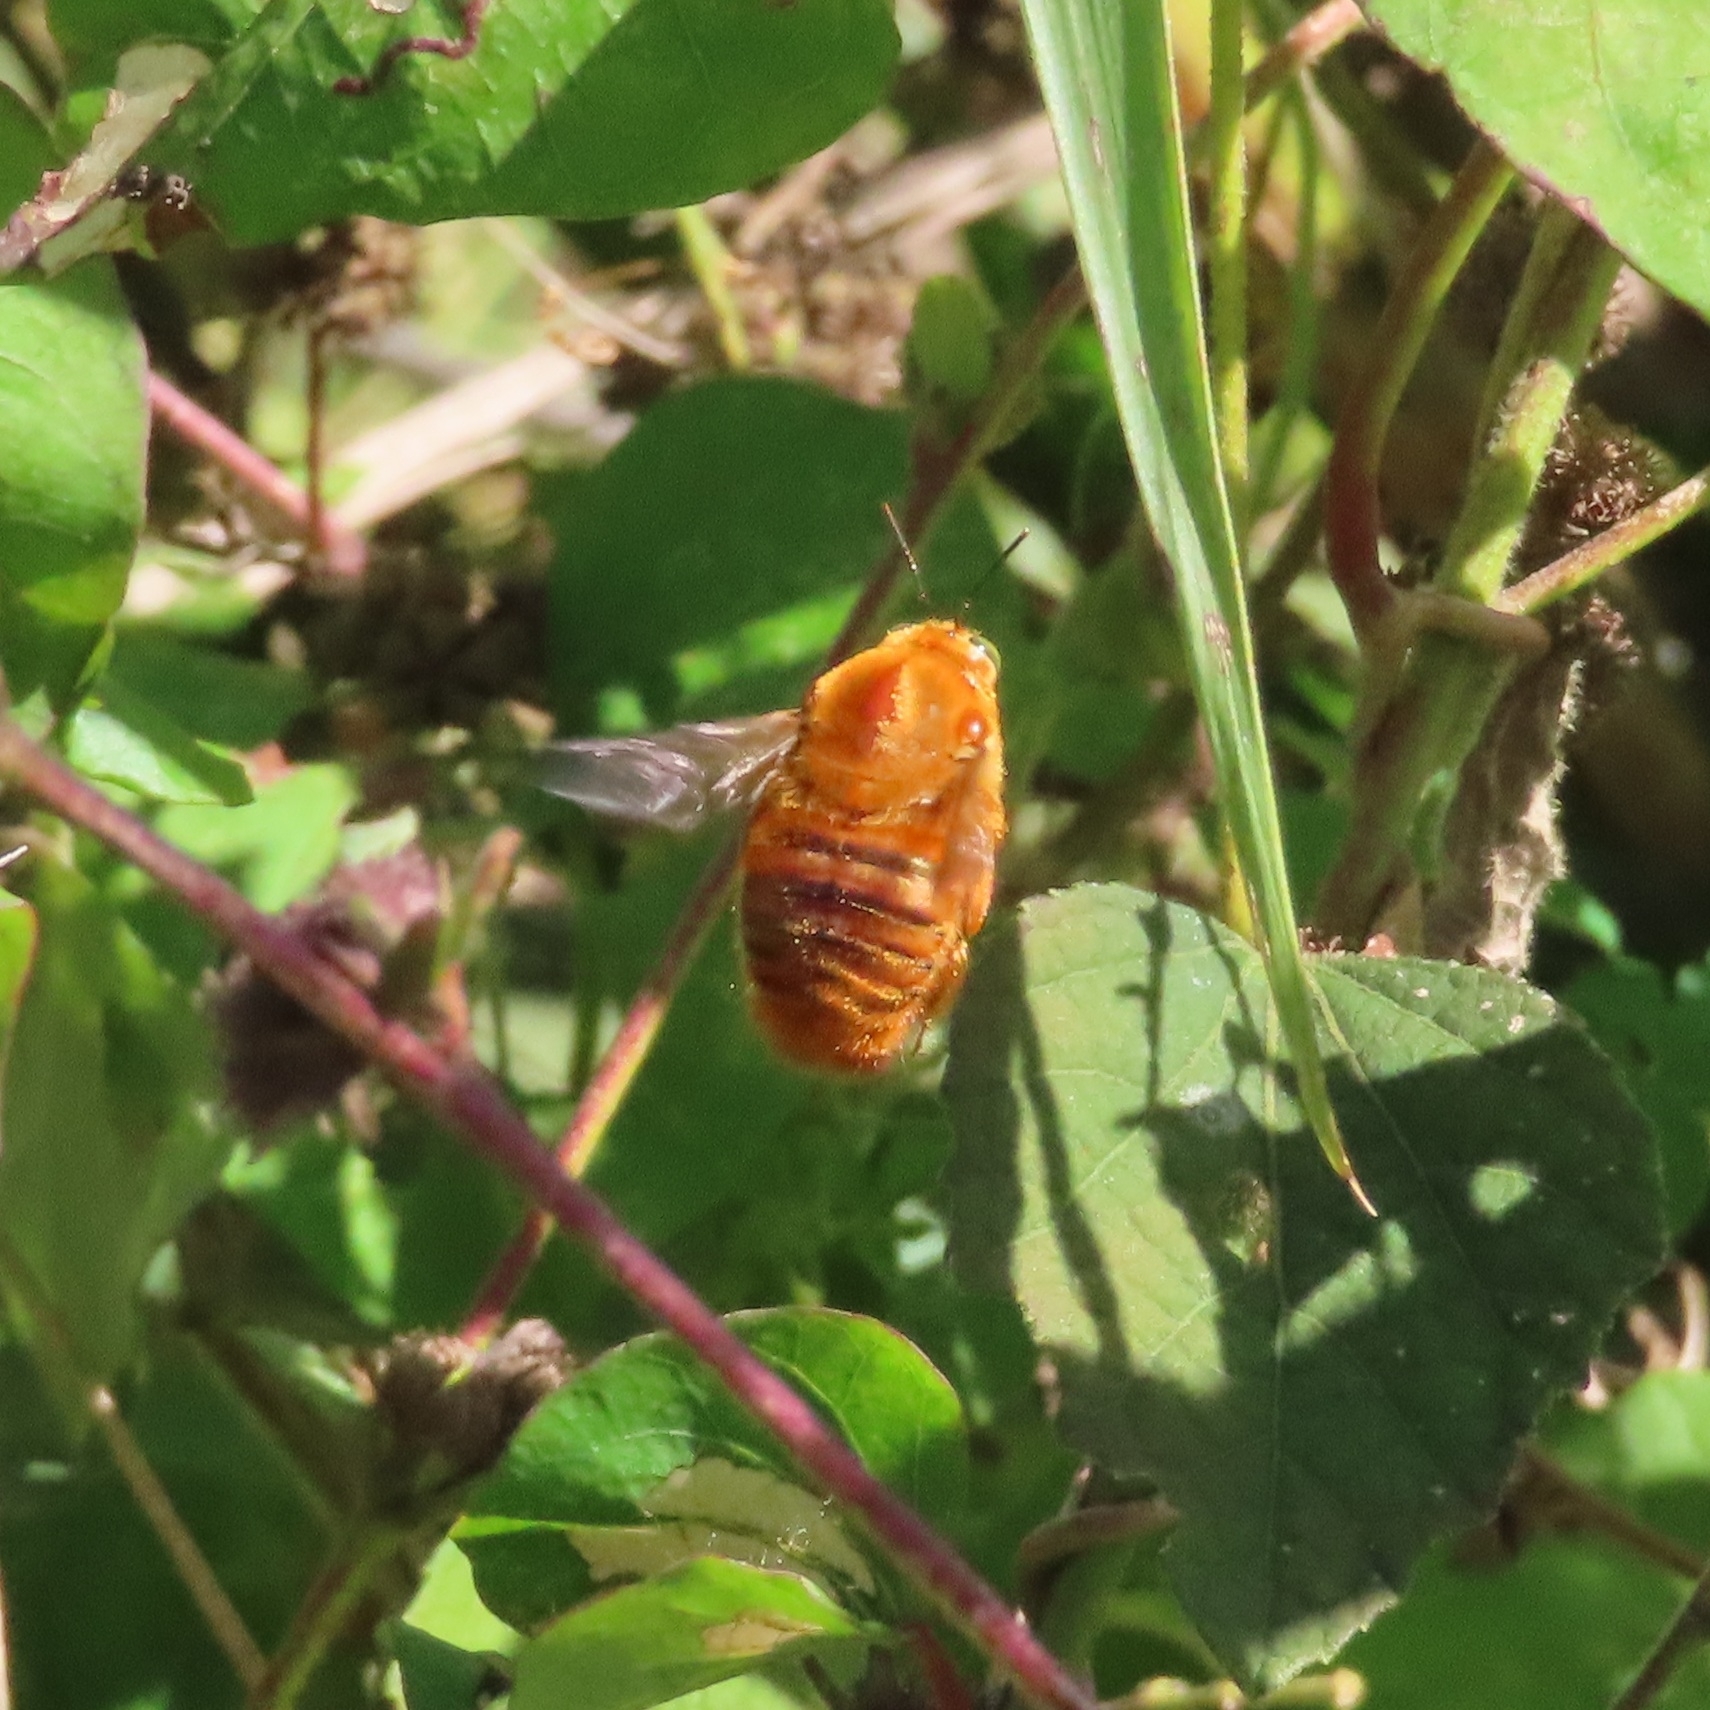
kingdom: Animalia
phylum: Arthropoda
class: Insecta
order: Hymenoptera
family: Apidae
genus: Xylocopa
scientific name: Xylocopa mordax
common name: Antillean carpenter bee
